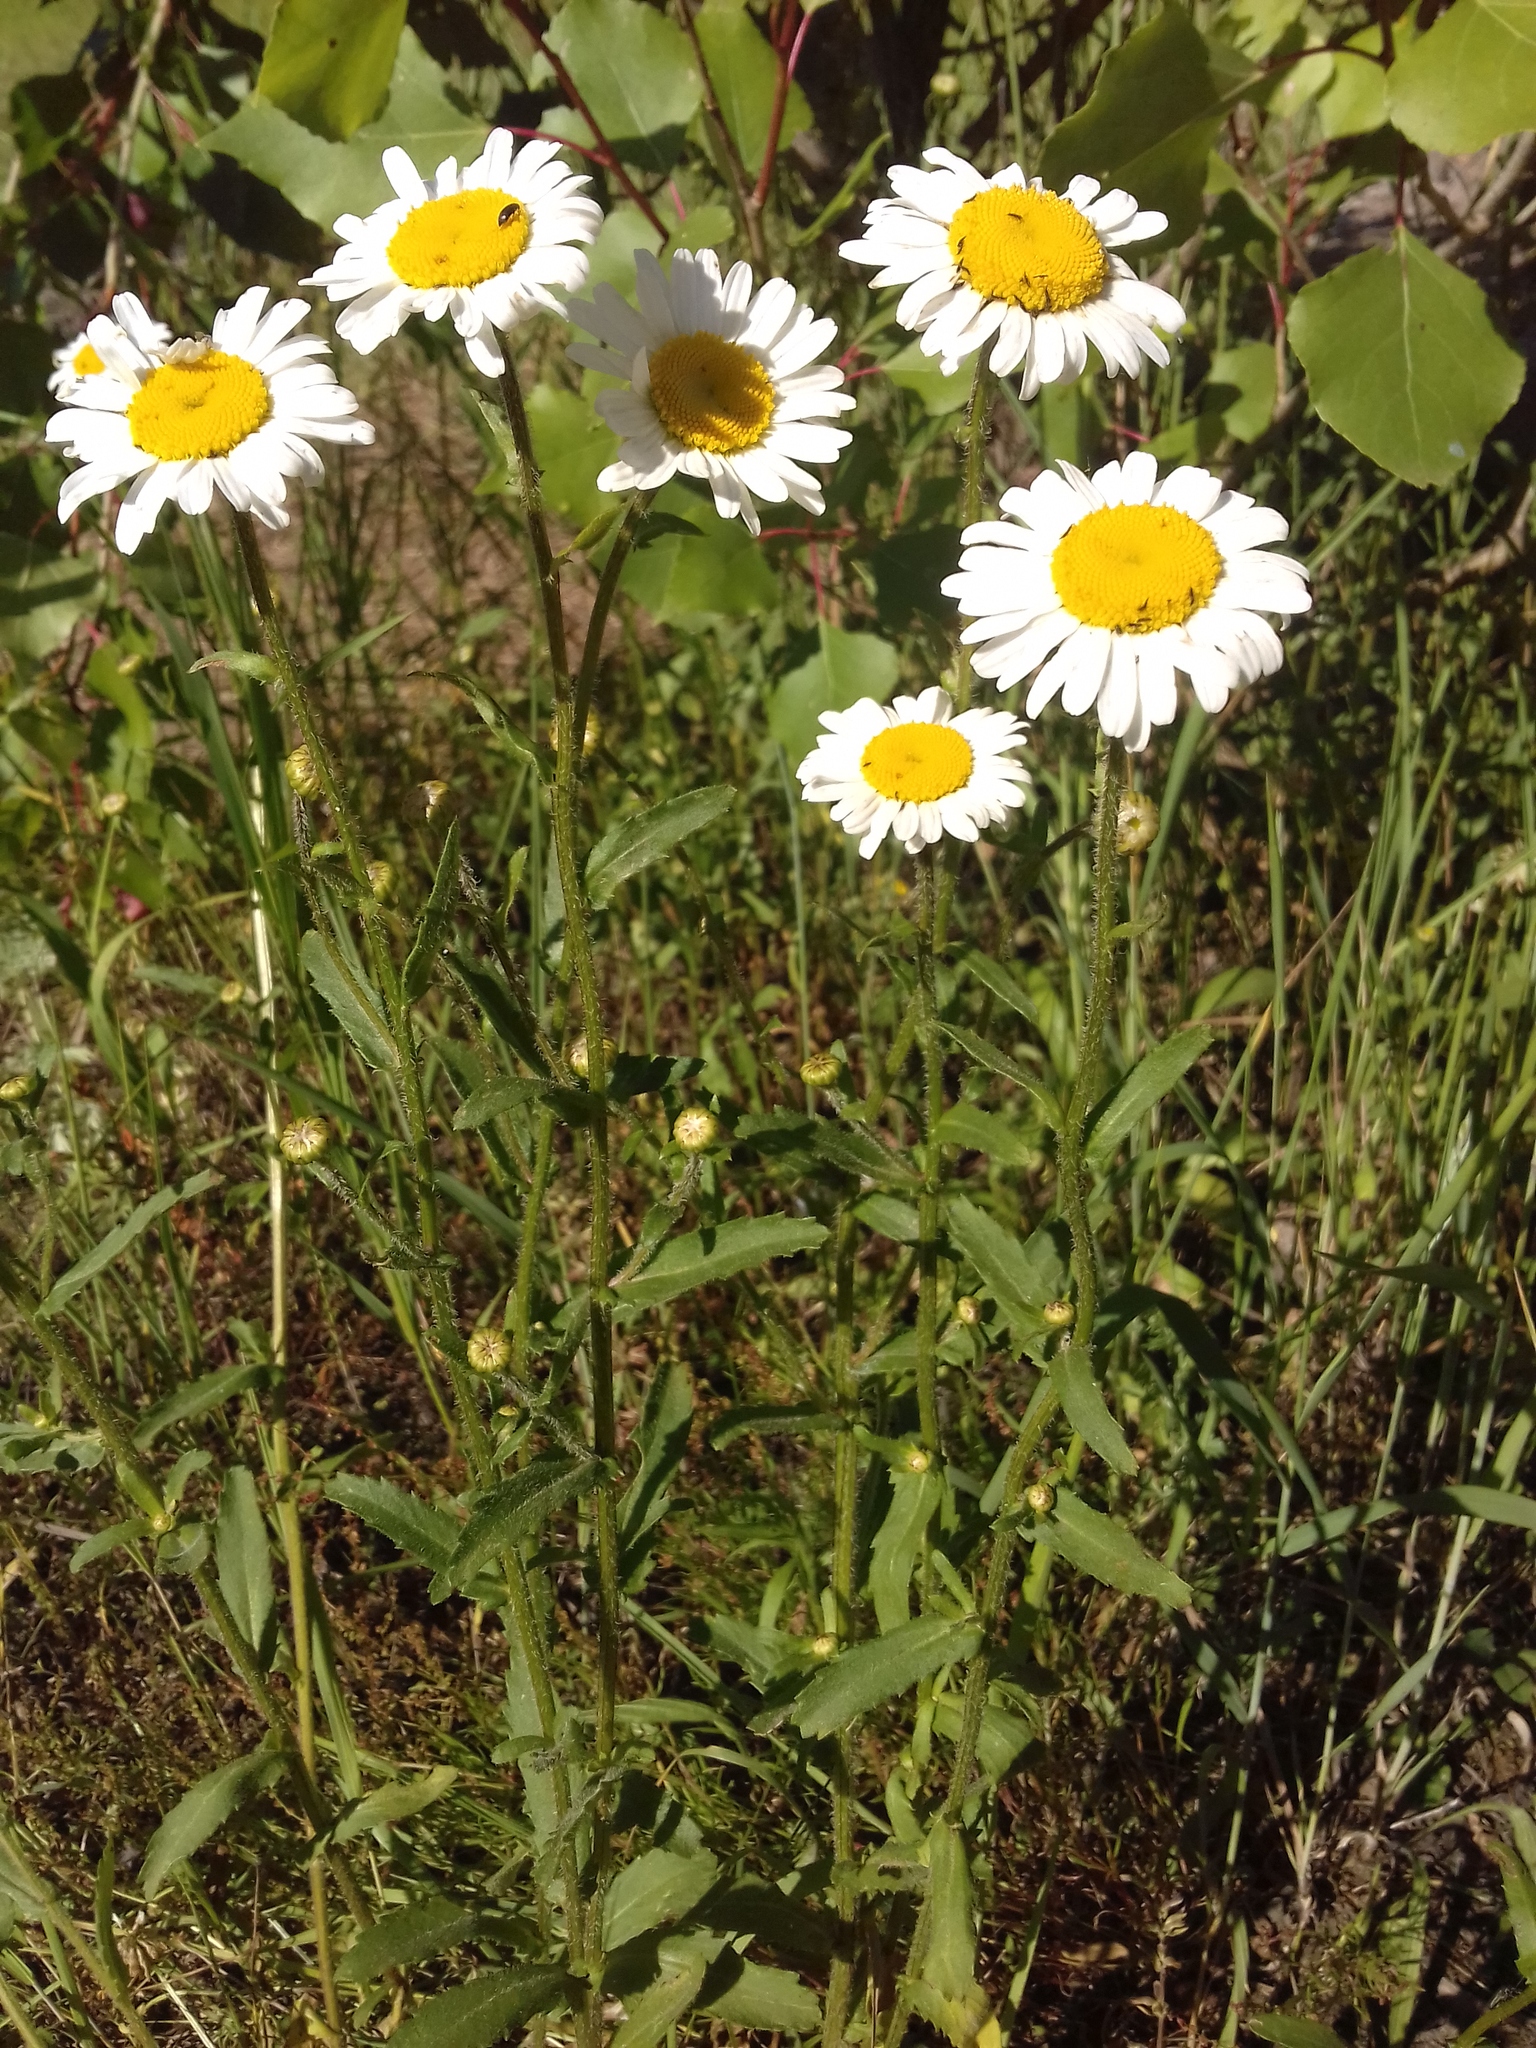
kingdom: Plantae
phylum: Tracheophyta
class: Magnoliopsida
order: Asterales
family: Asteraceae
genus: Leucanthemum
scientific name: Leucanthemum vulgare
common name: Oxeye daisy
